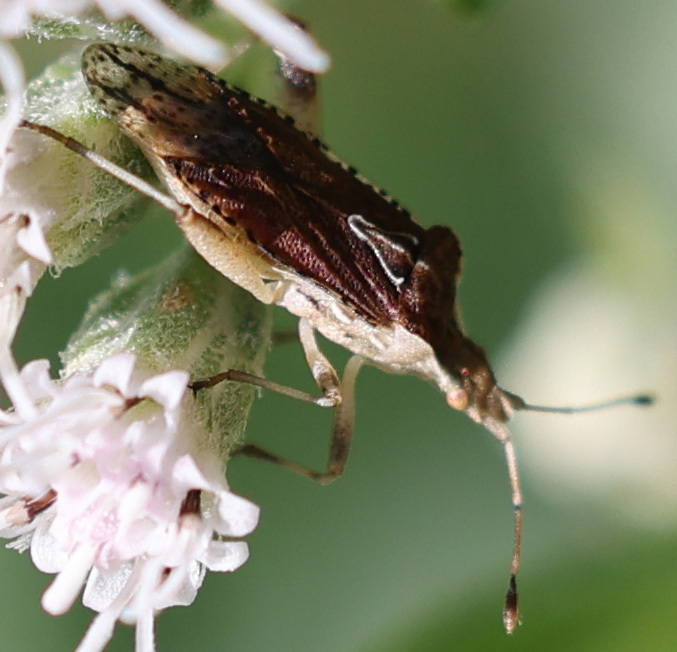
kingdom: Animalia
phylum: Arthropoda
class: Insecta
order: Hemiptera
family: Rhopalidae
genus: Harmostes
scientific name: Harmostes fraterculus
